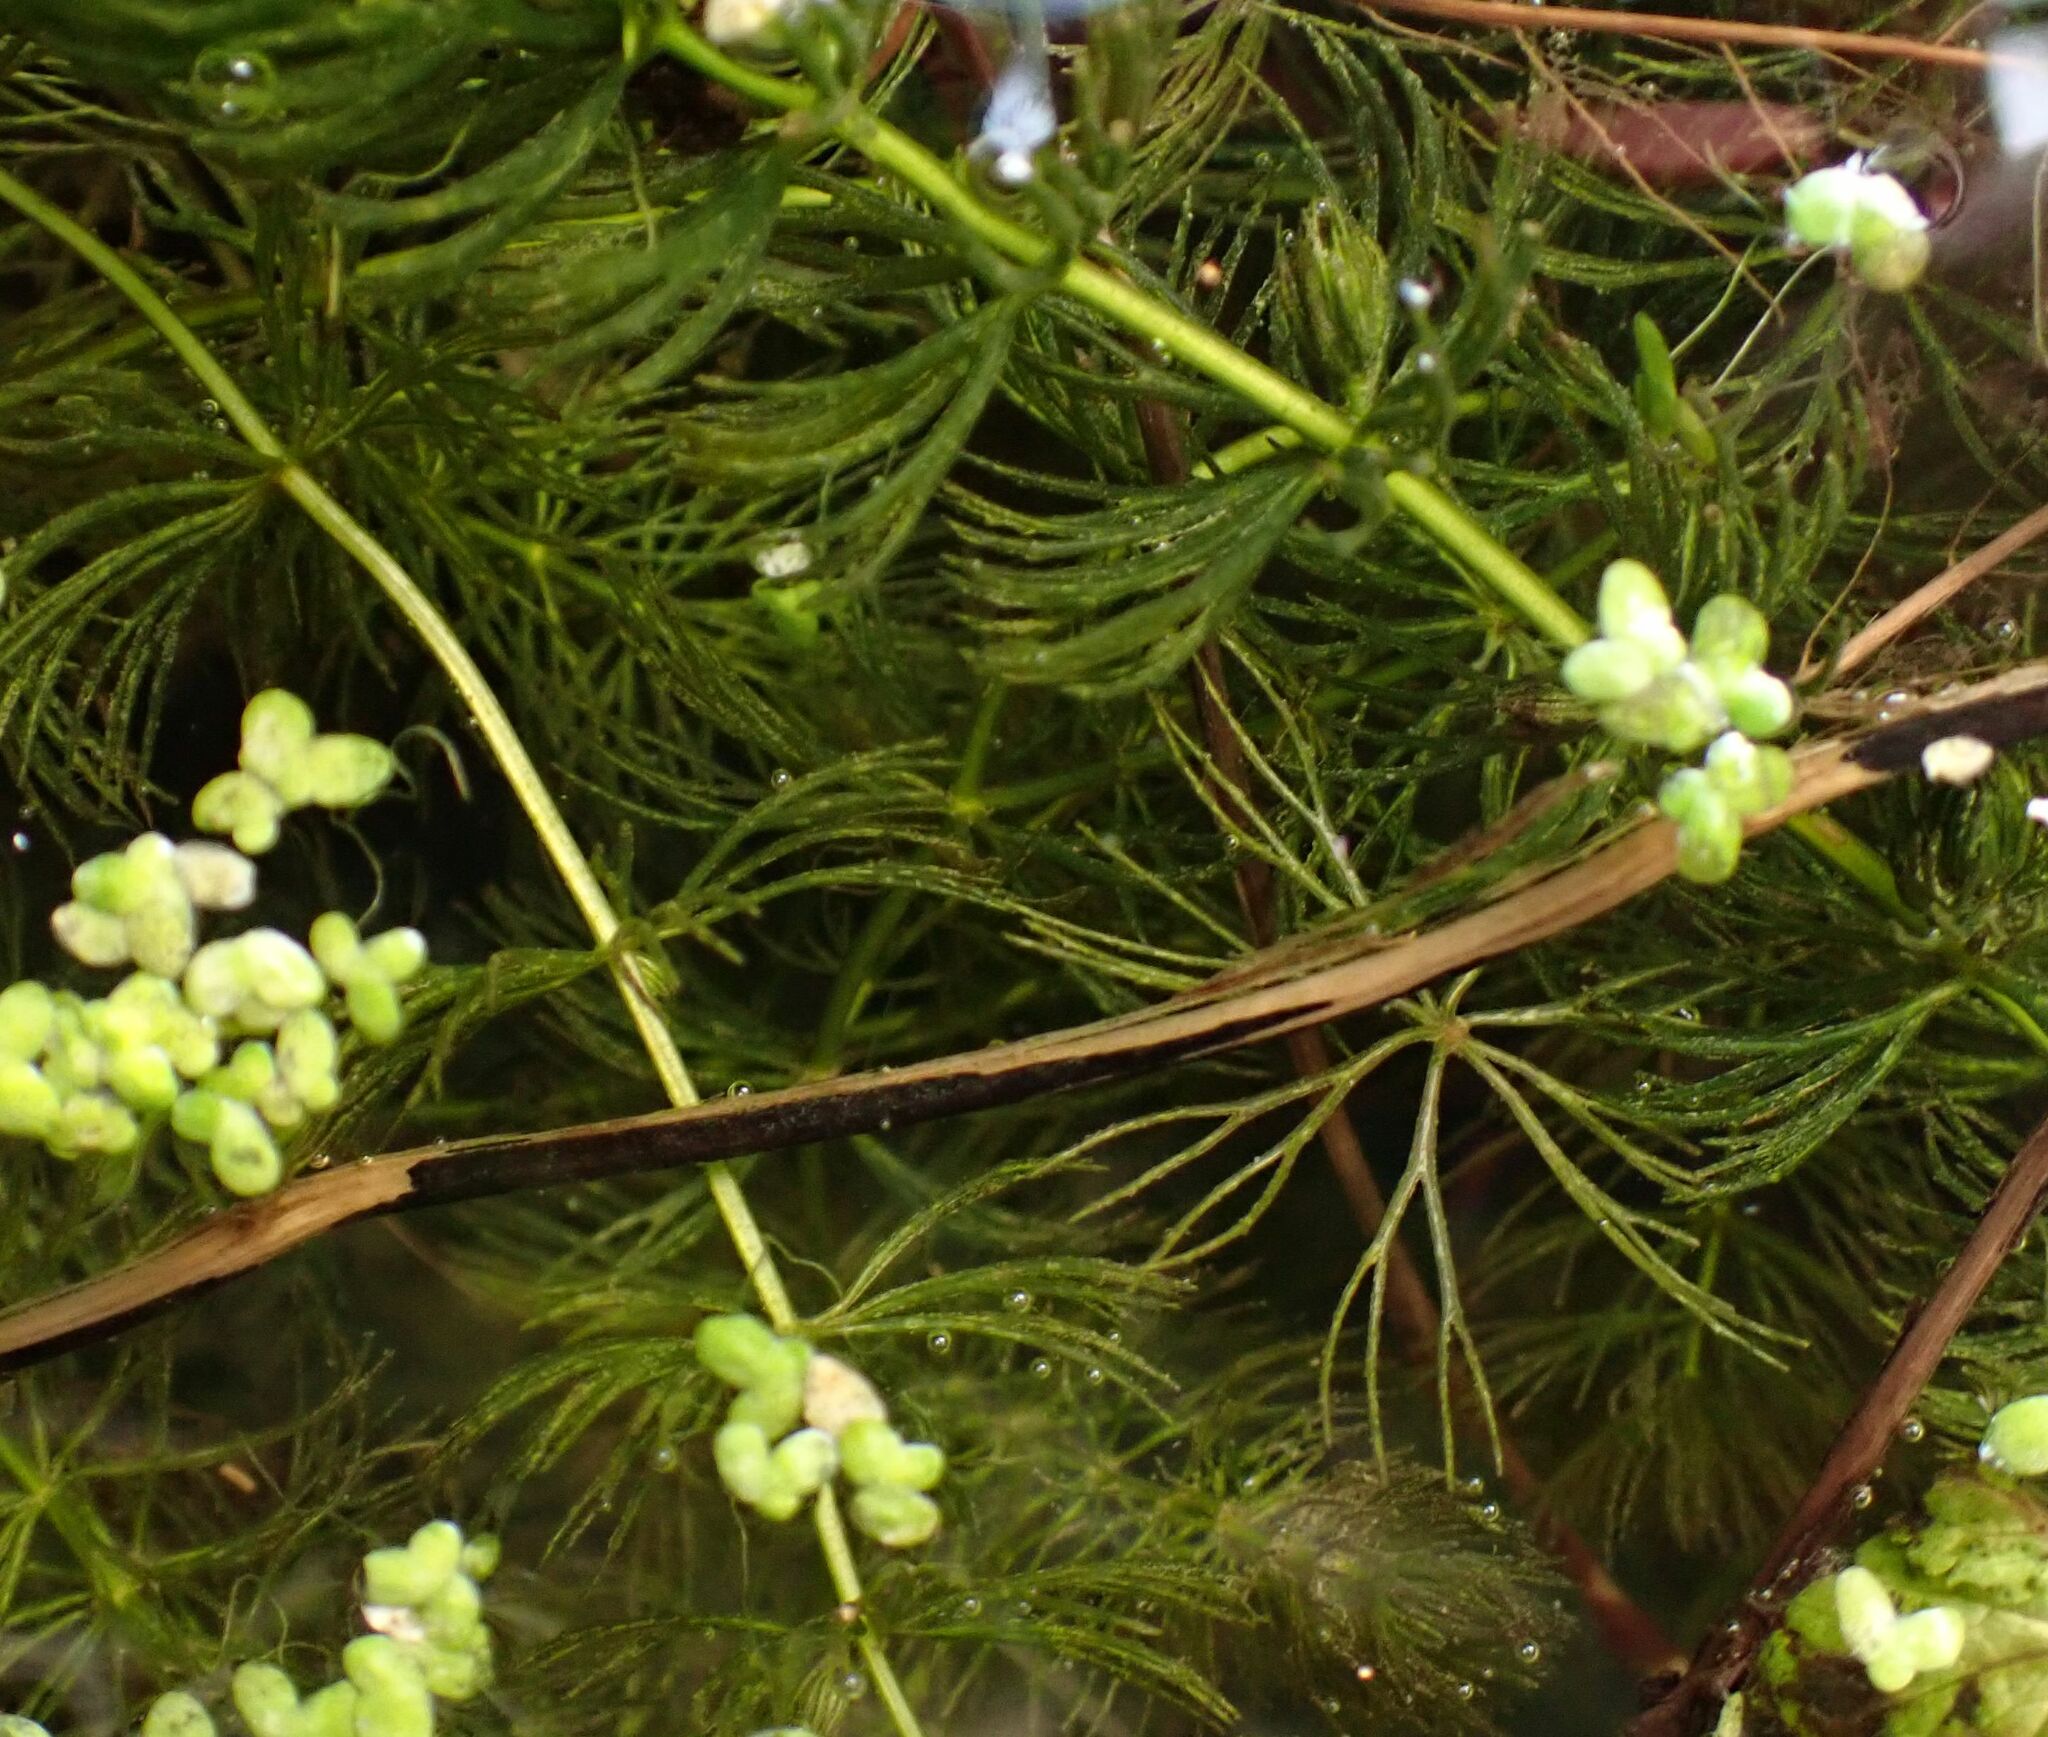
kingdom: Plantae
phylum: Tracheophyta
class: Magnoliopsida
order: Ceratophyllales
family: Ceratophyllaceae
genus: Ceratophyllum
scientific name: Ceratophyllum demersum
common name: Rigid hornwort
